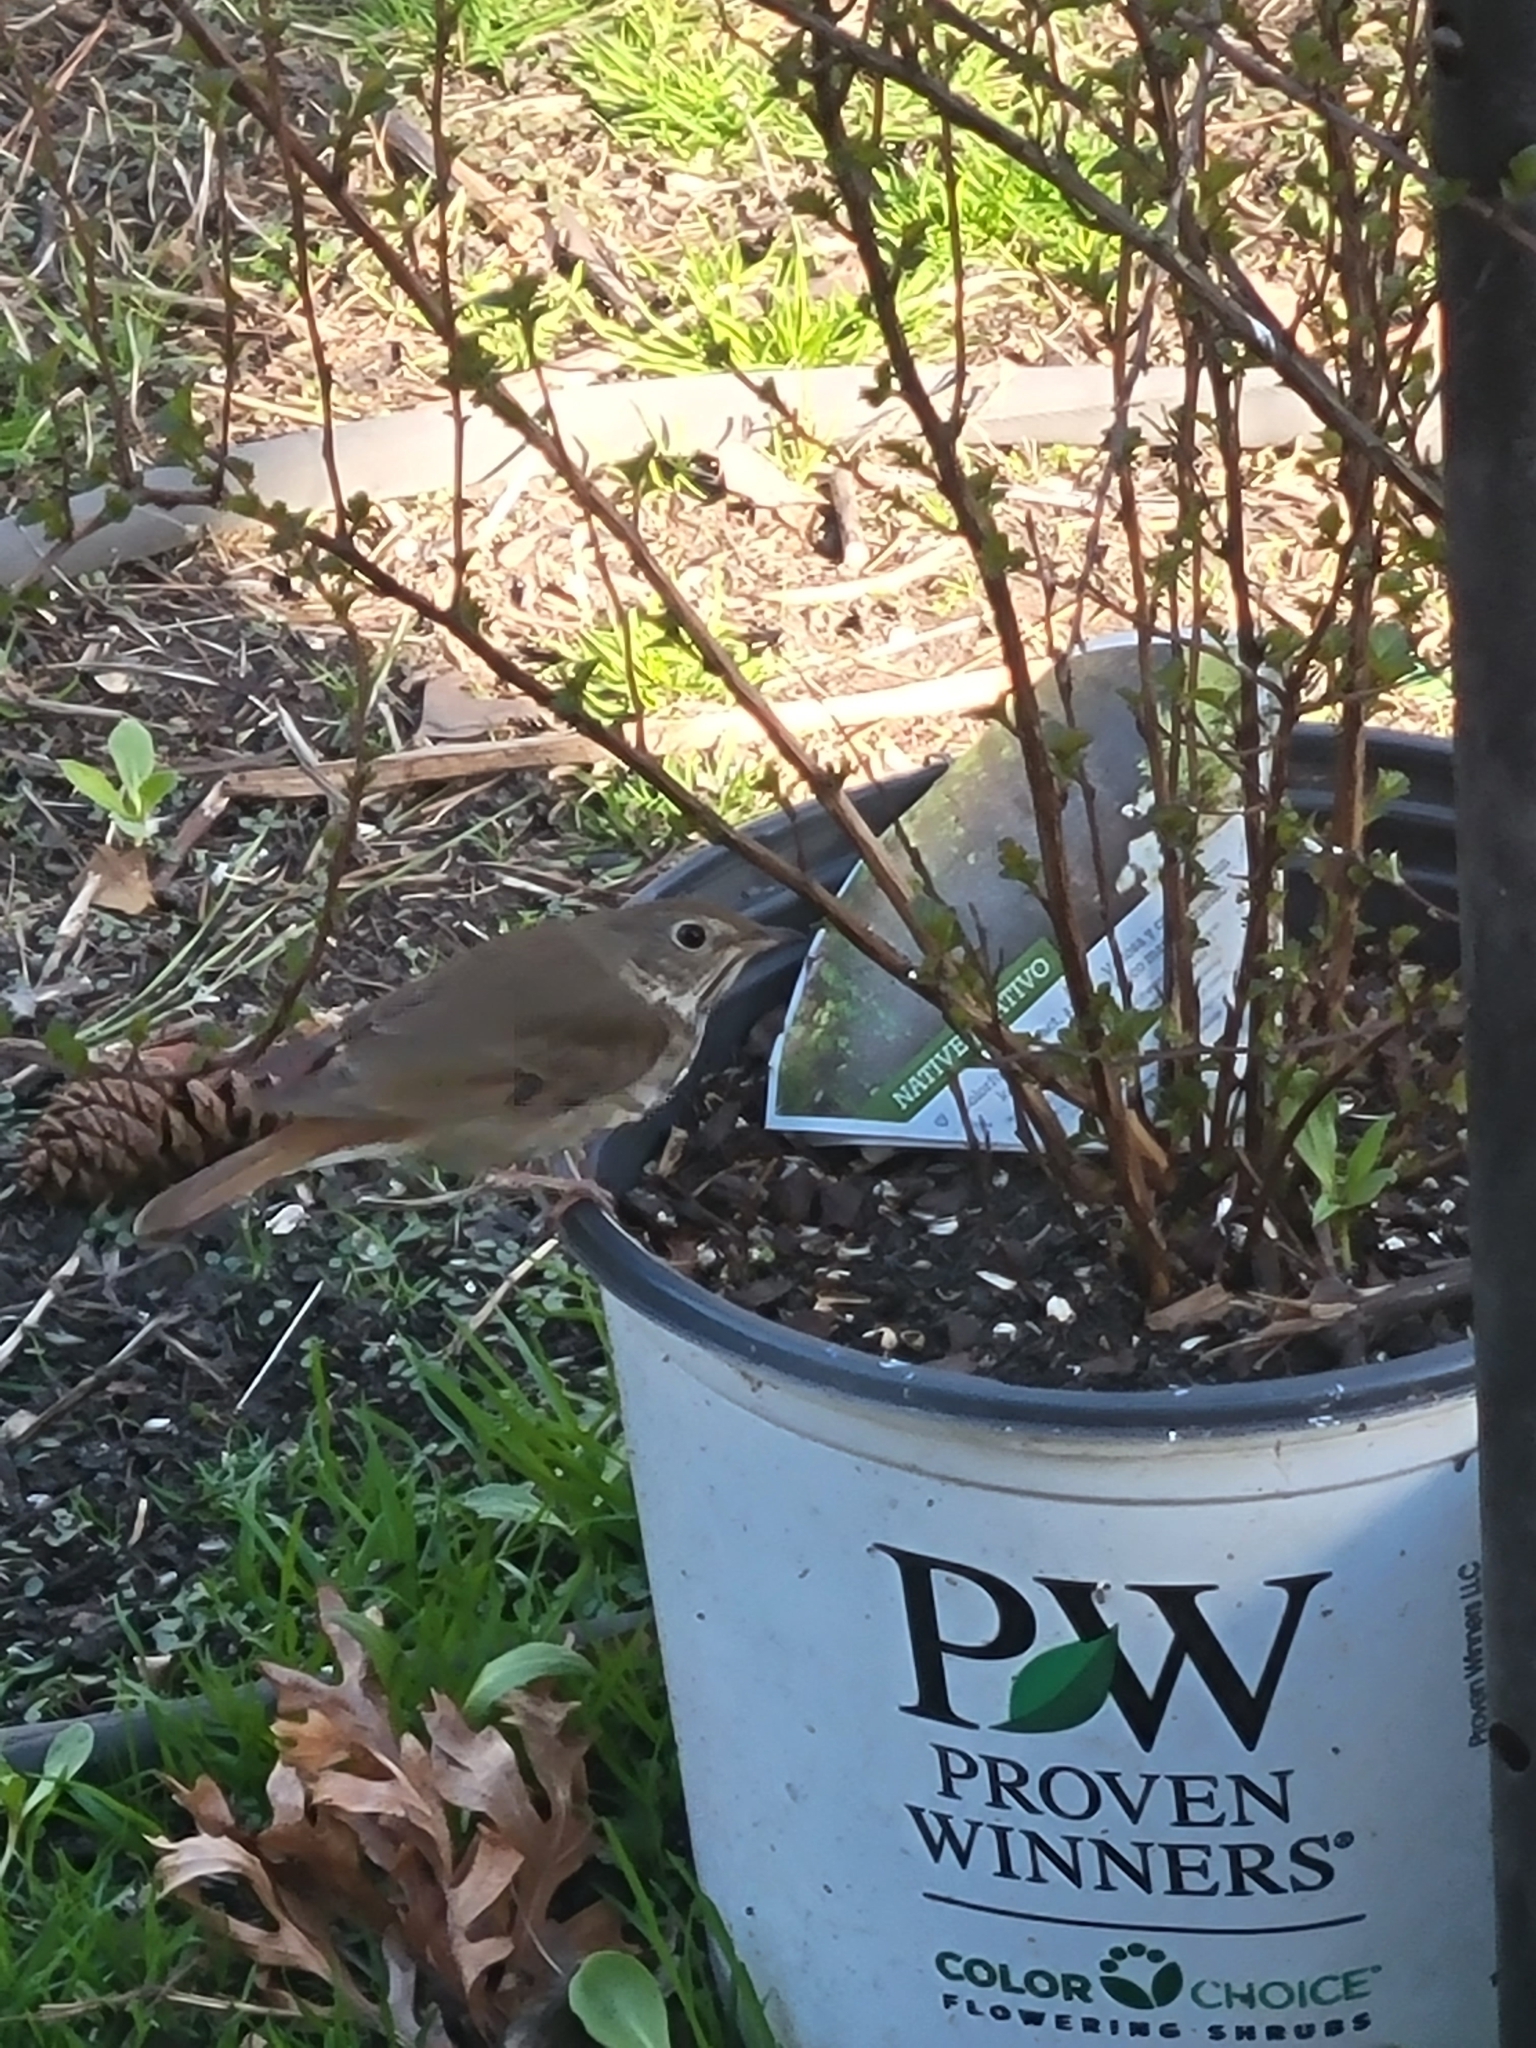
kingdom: Animalia
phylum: Chordata
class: Aves
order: Passeriformes
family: Turdidae
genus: Catharus
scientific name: Catharus guttatus
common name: Hermit thrush
